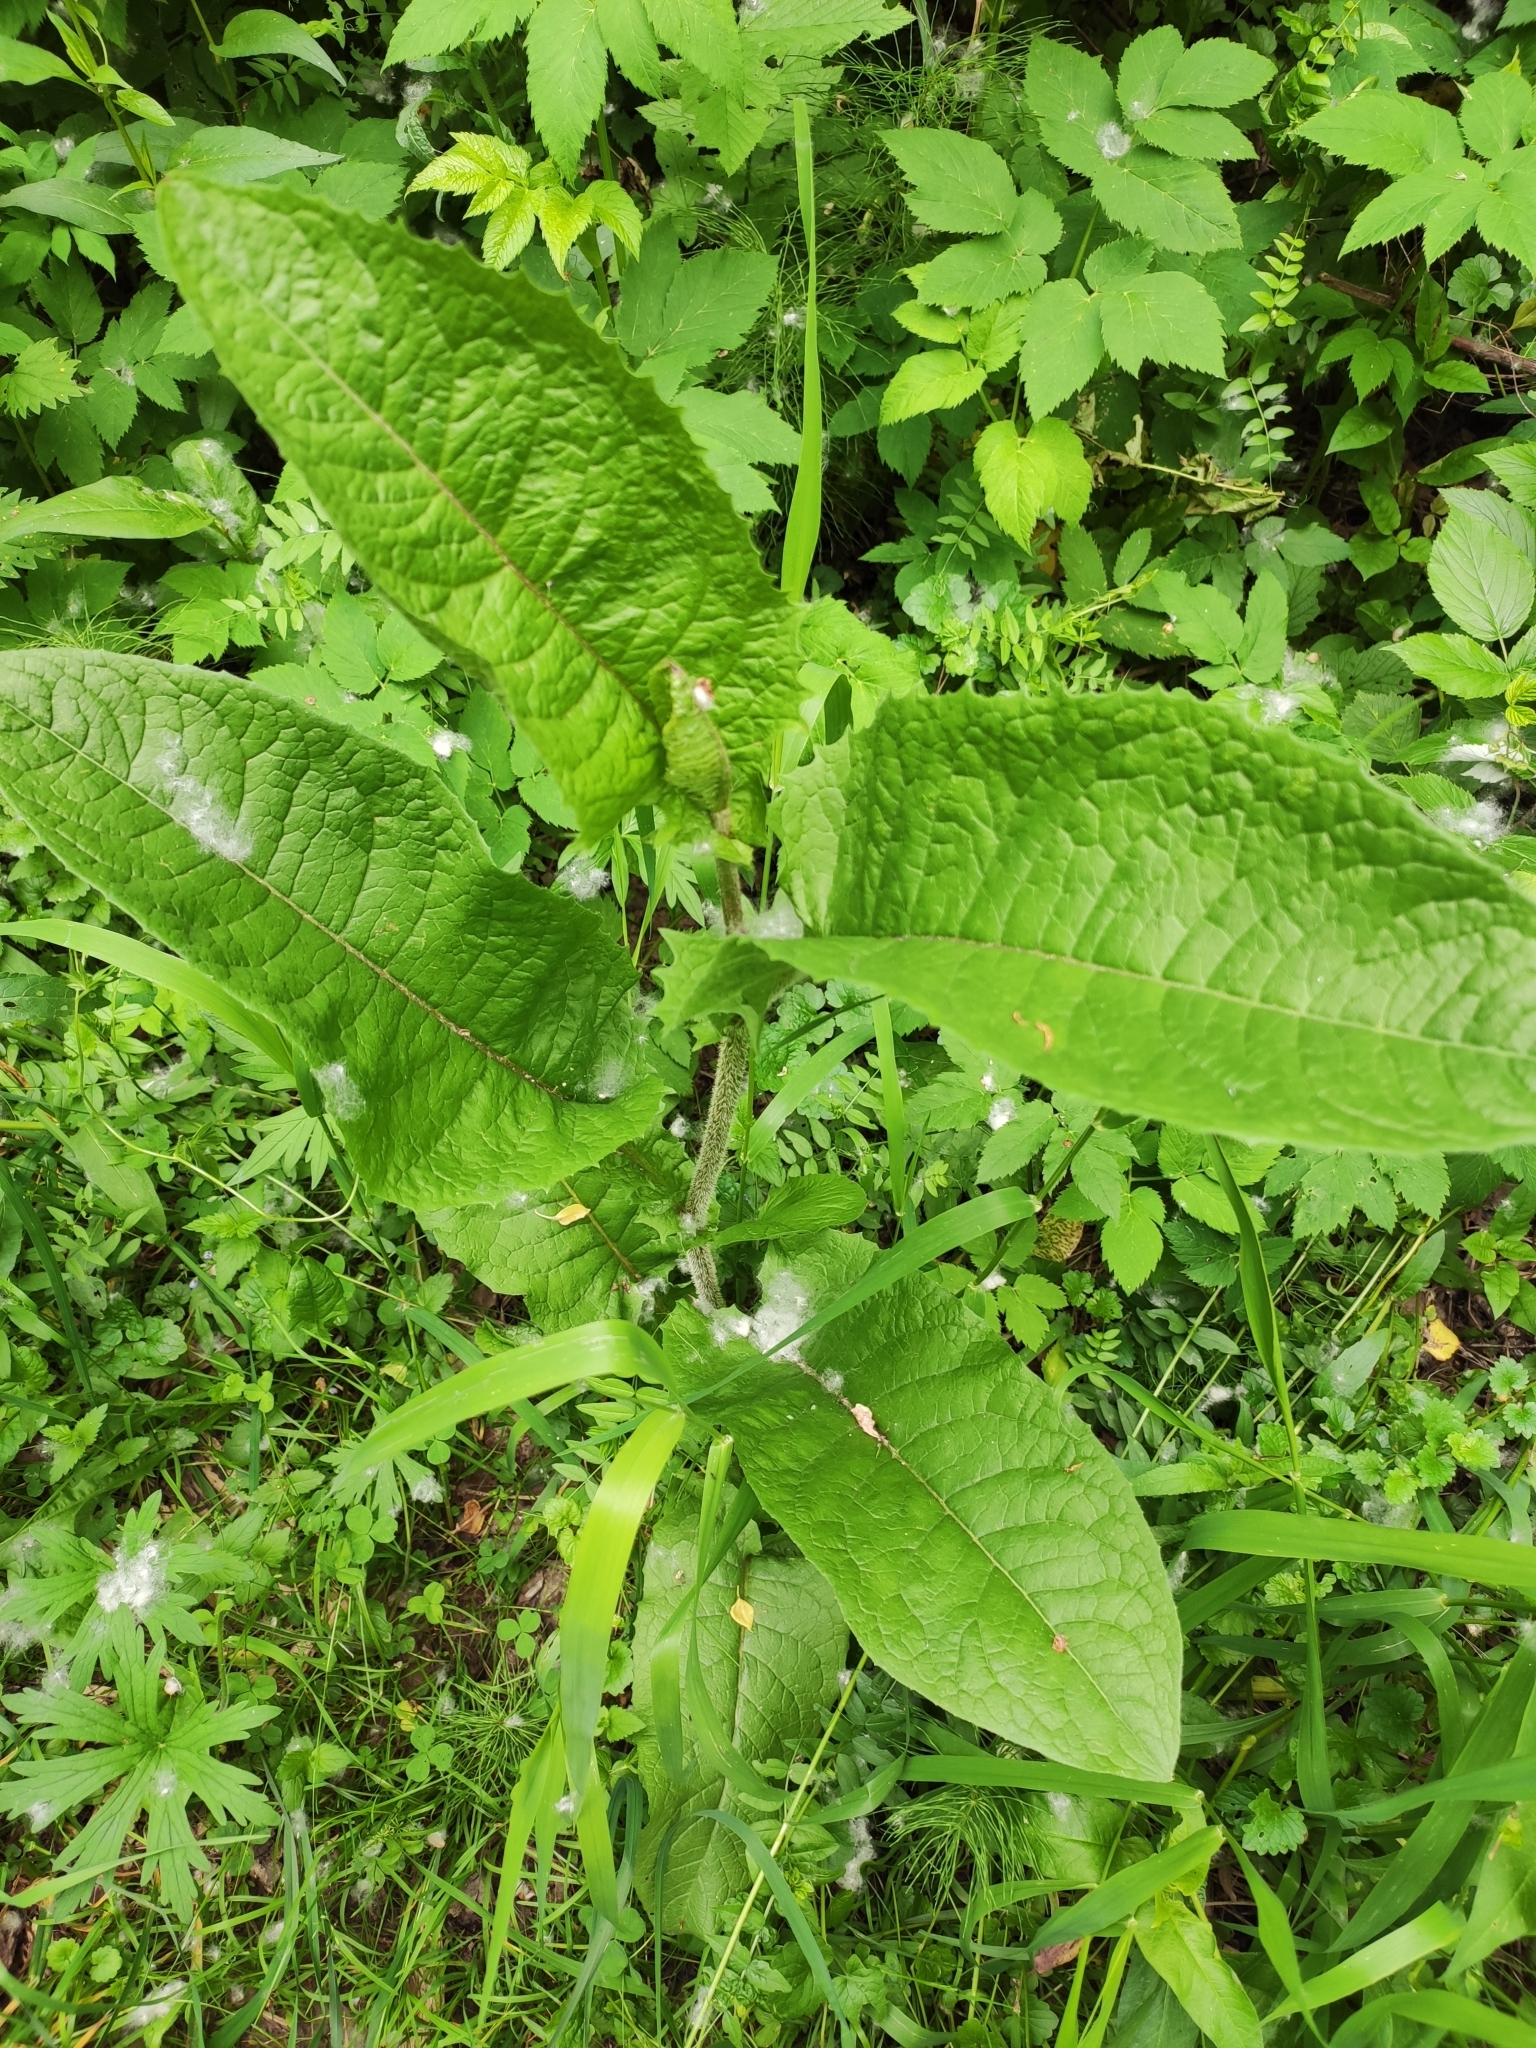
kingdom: Plantae
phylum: Tracheophyta
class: Magnoliopsida
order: Asterales
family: Asteraceae
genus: Crepis
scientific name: Crepis sibirica
